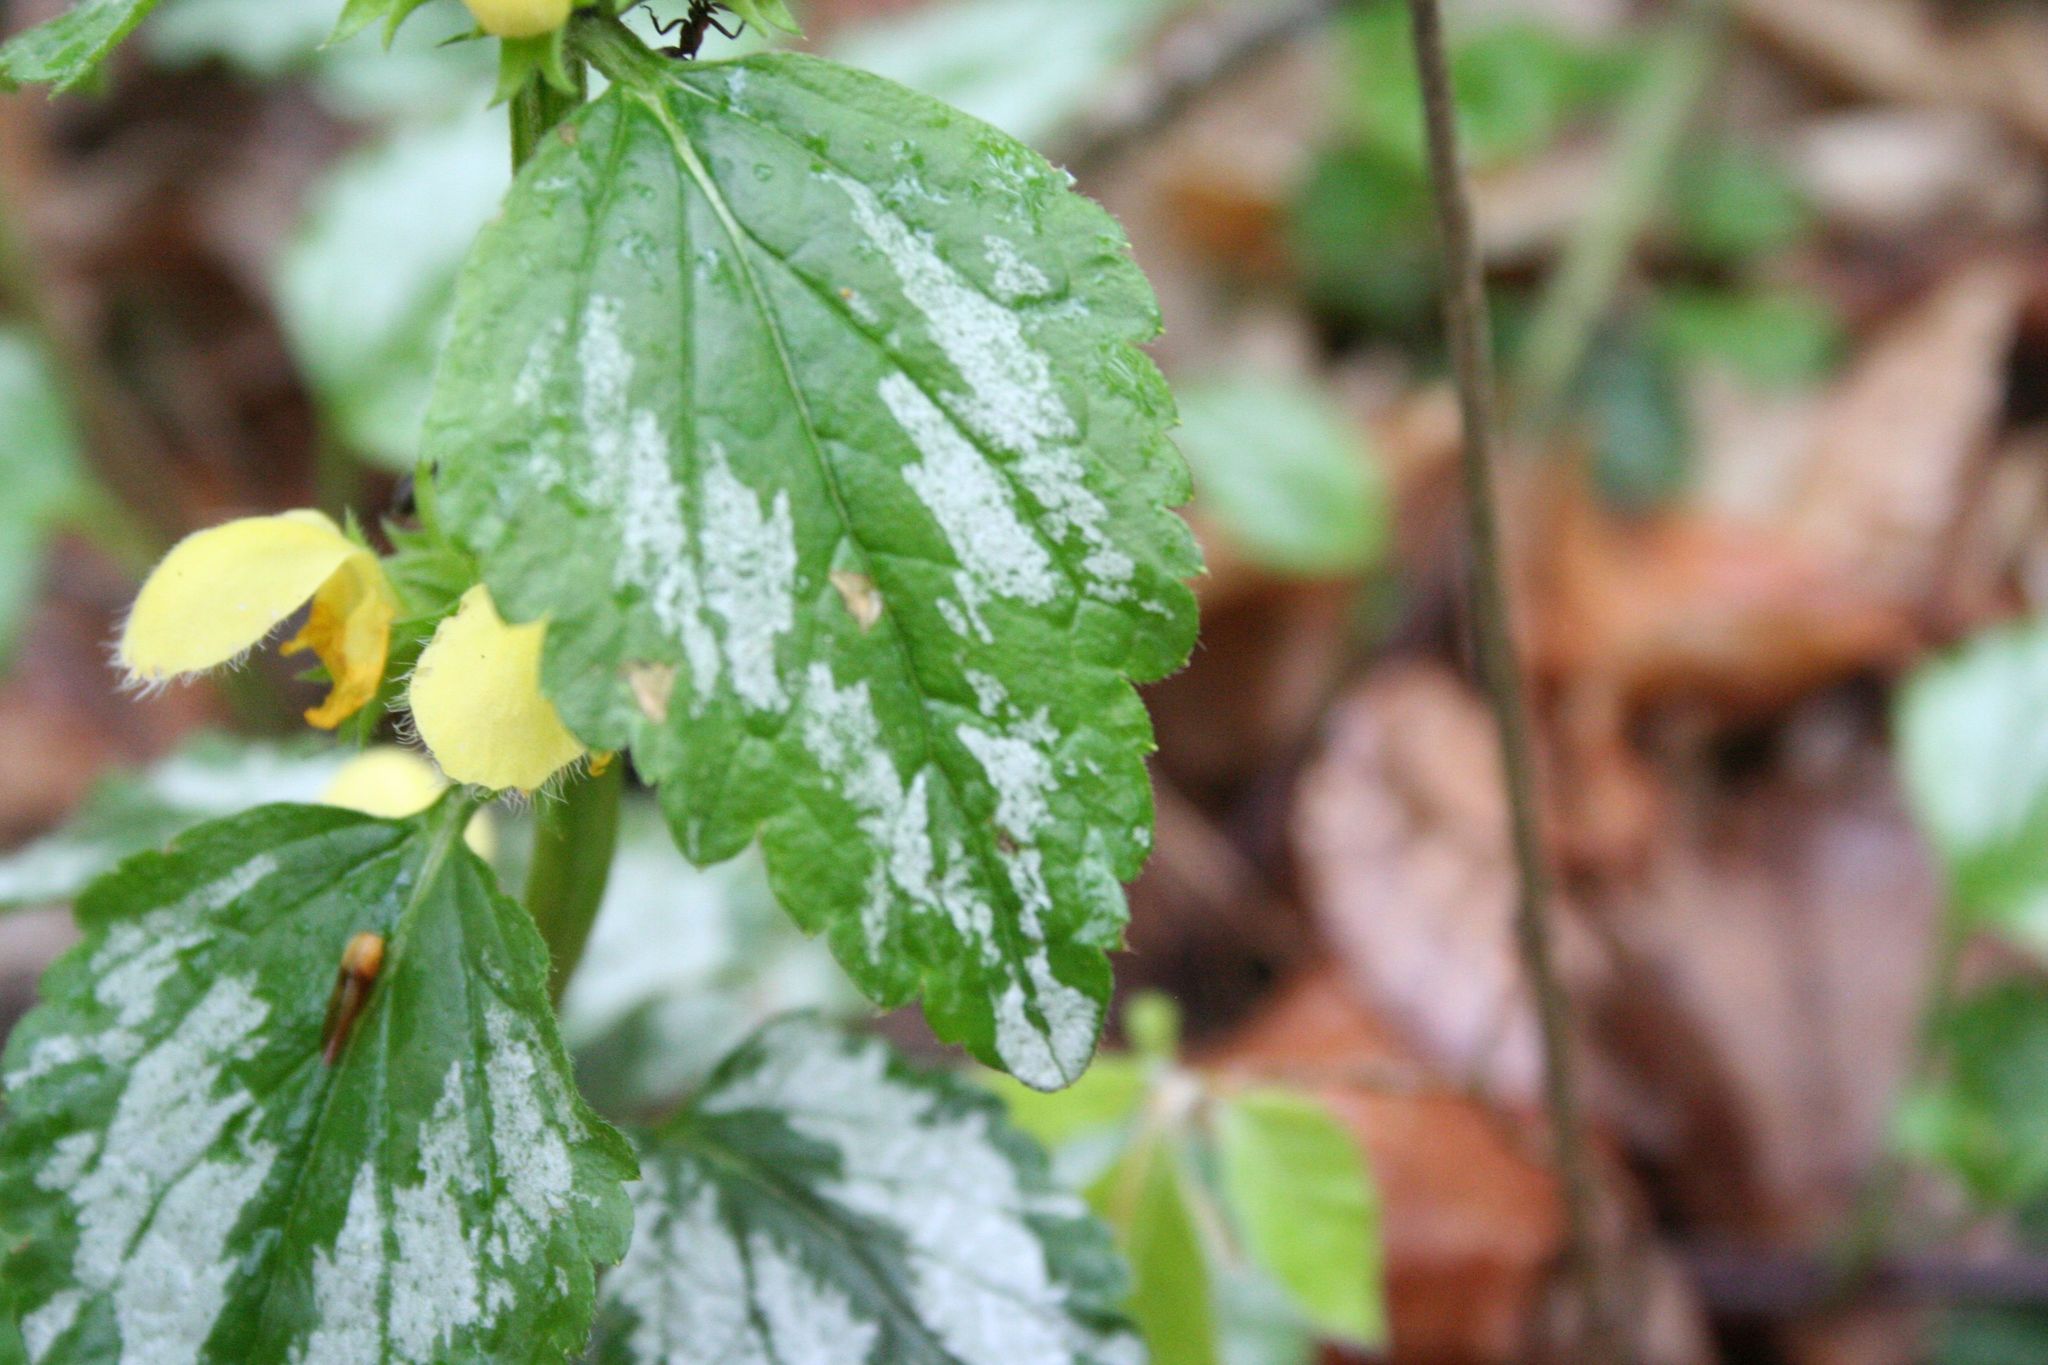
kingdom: Plantae
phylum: Tracheophyta
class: Magnoliopsida
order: Lamiales
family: Lamiaceae
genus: Lamium
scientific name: Lamium galeobdolon
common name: Yellow archangel
